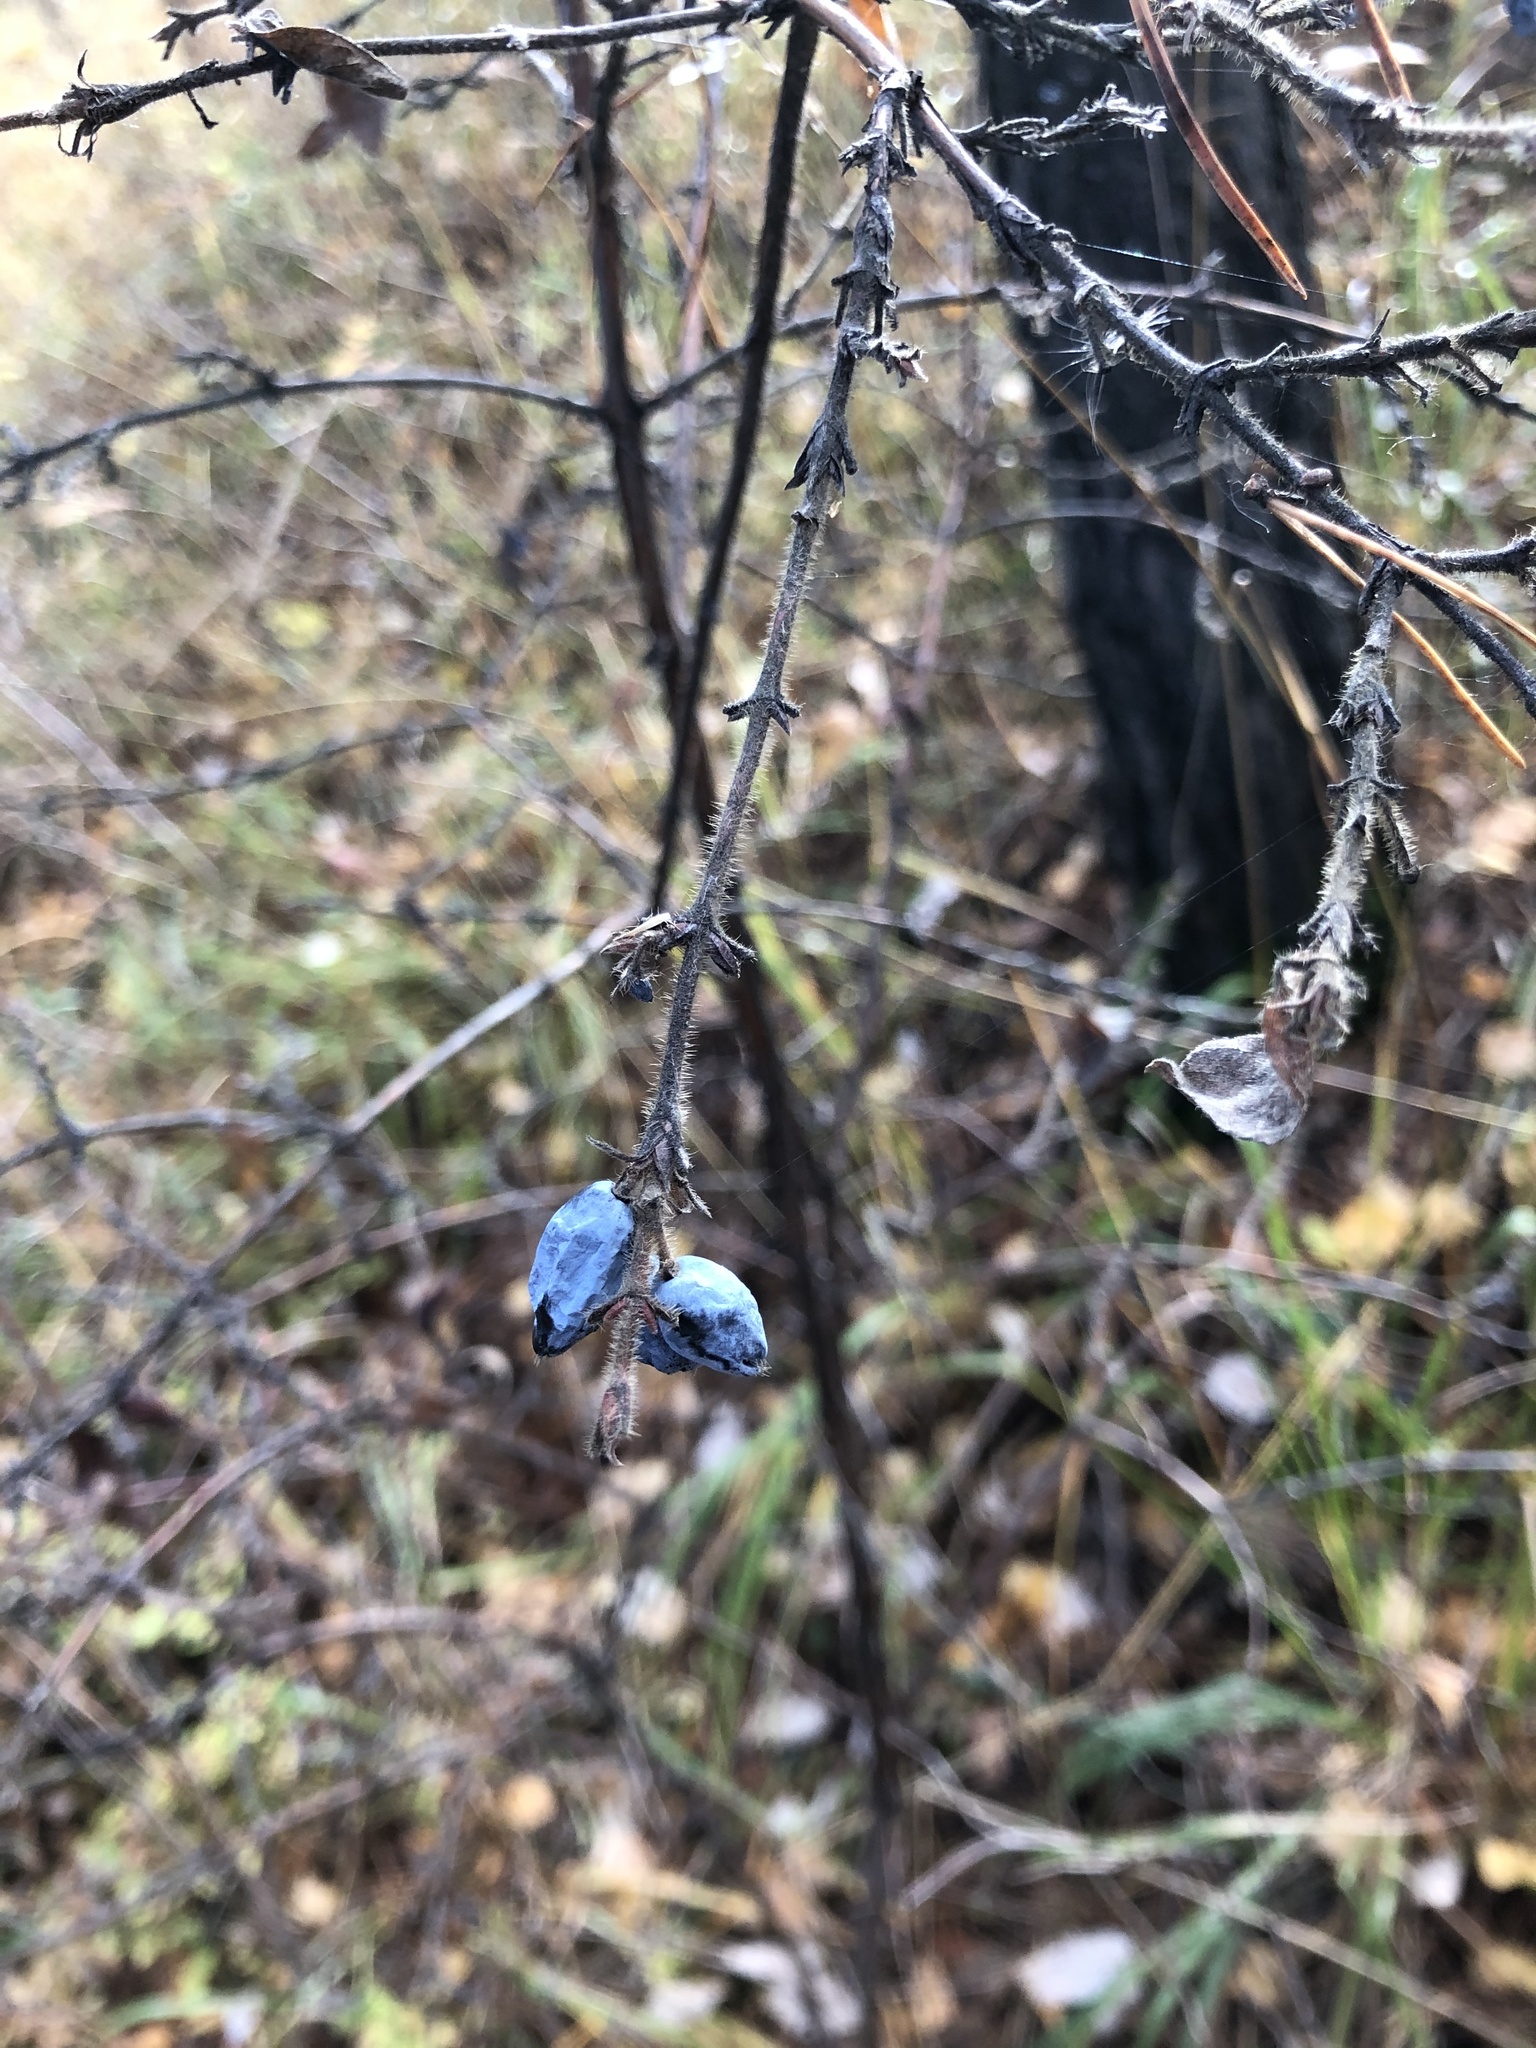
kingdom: Plantae
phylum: Tracheophyta
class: Magnoliopsida
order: Dipsacales
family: Caprifoliaceae
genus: Lonicera
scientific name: Lonicera caerulea
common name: Blue honeysuckle
